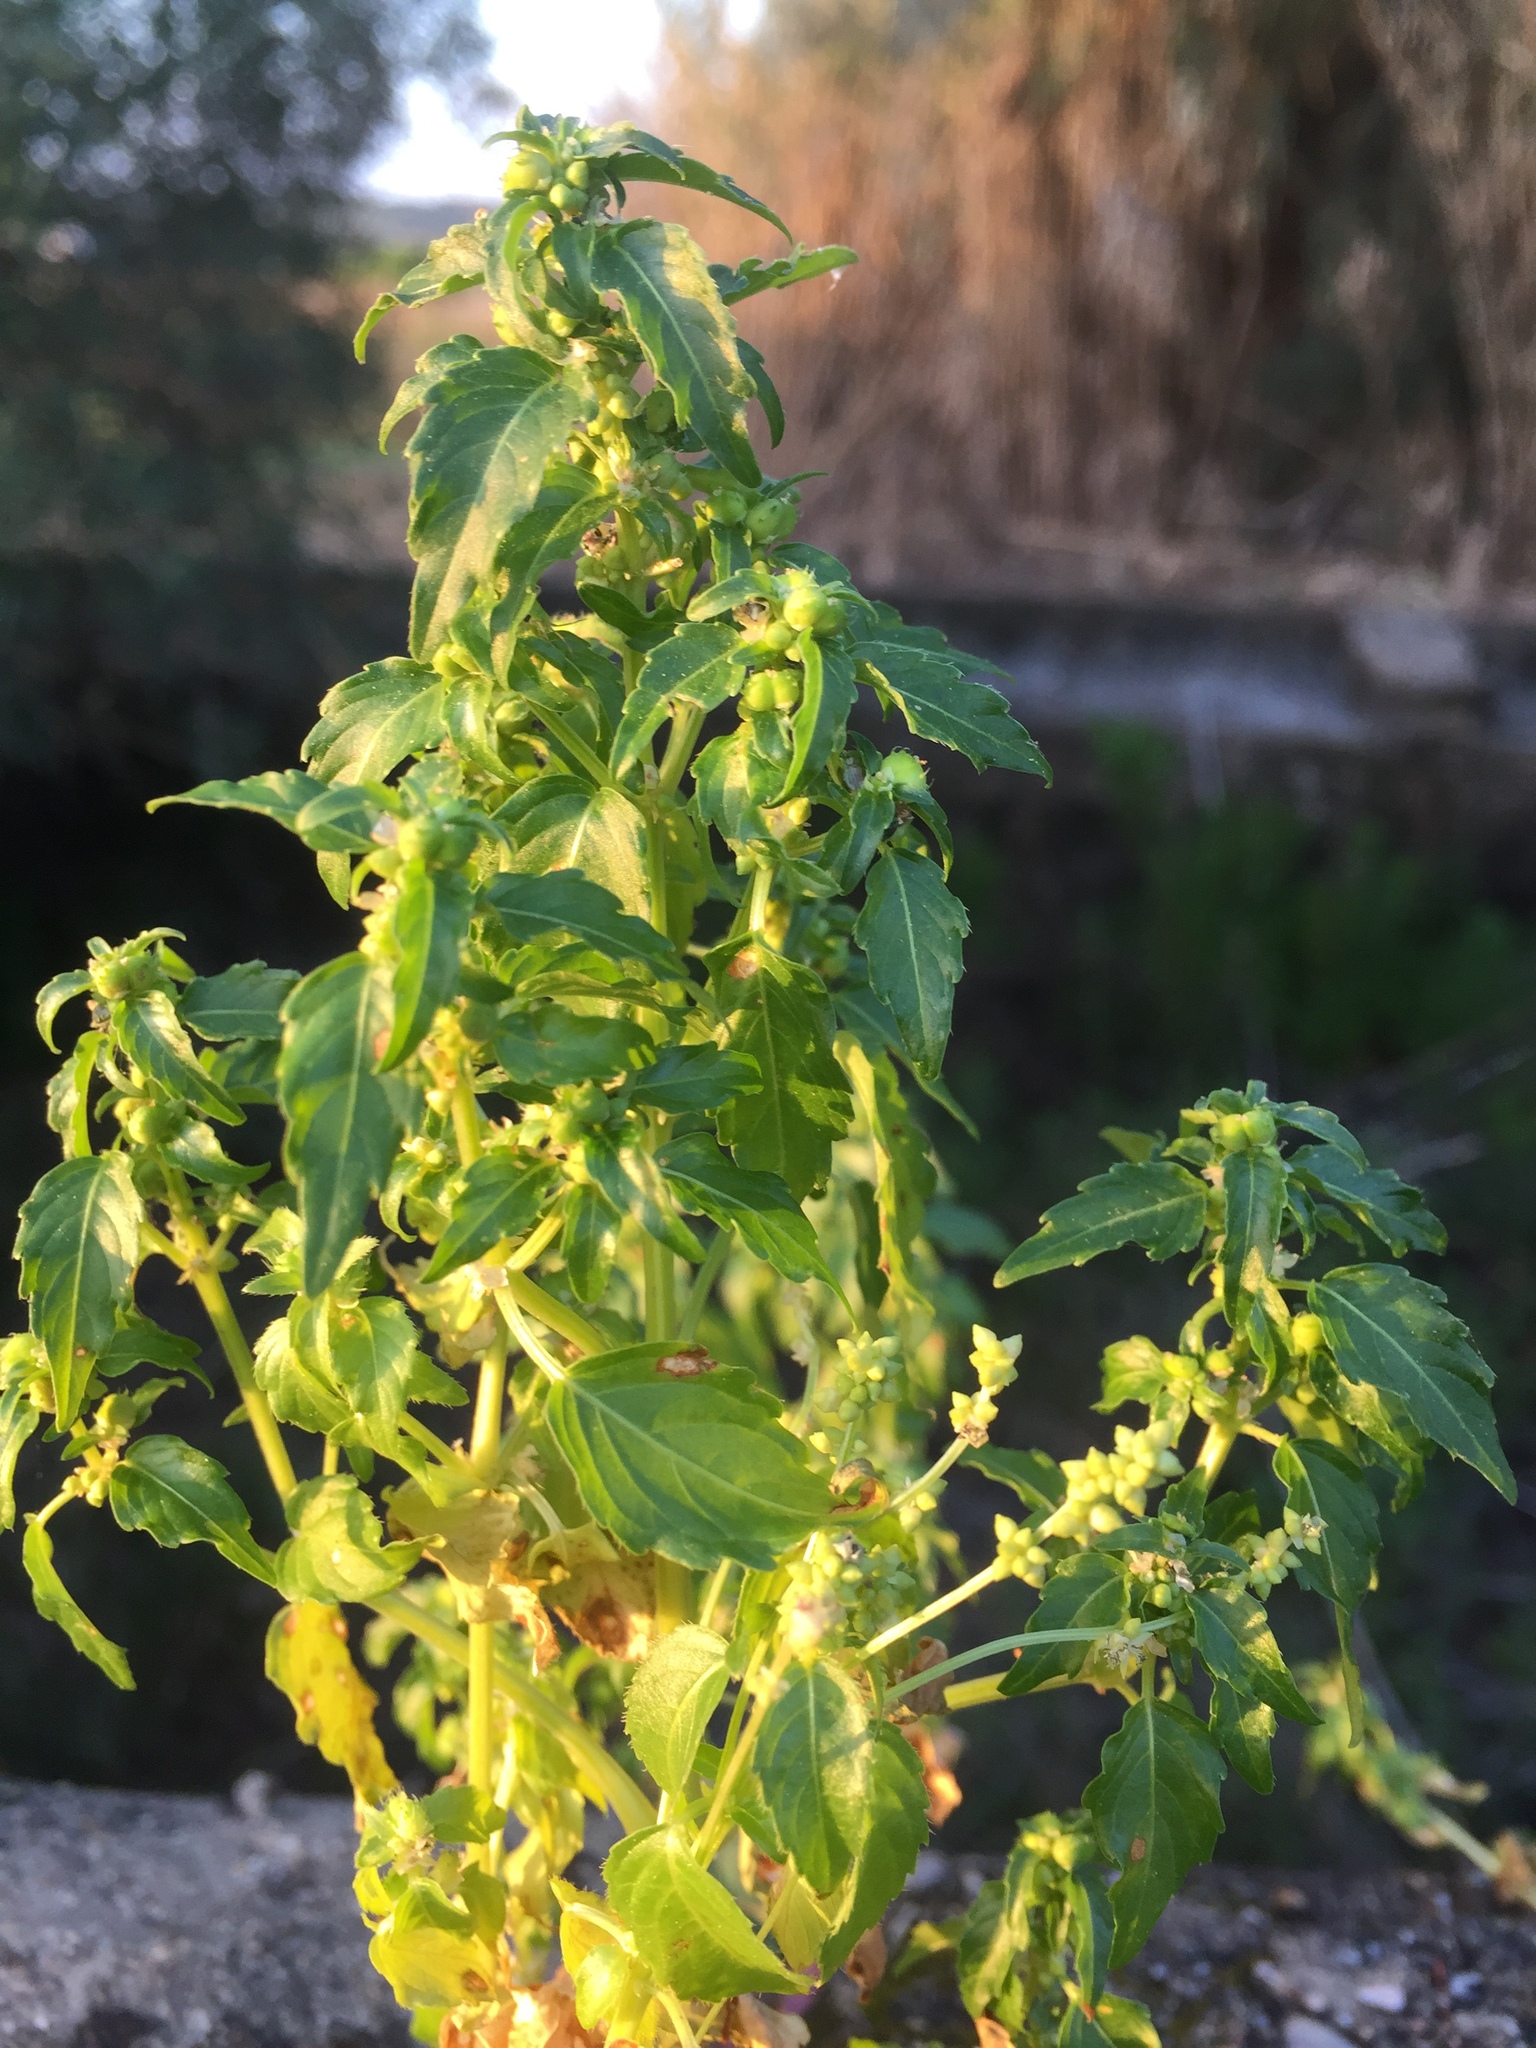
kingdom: Plantae
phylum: Tracheophyta
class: Magnoliopsida
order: Malpighiales
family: Euphorbiaceae
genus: Mercurialis
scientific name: Mercurialis annua
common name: Annual mercury
